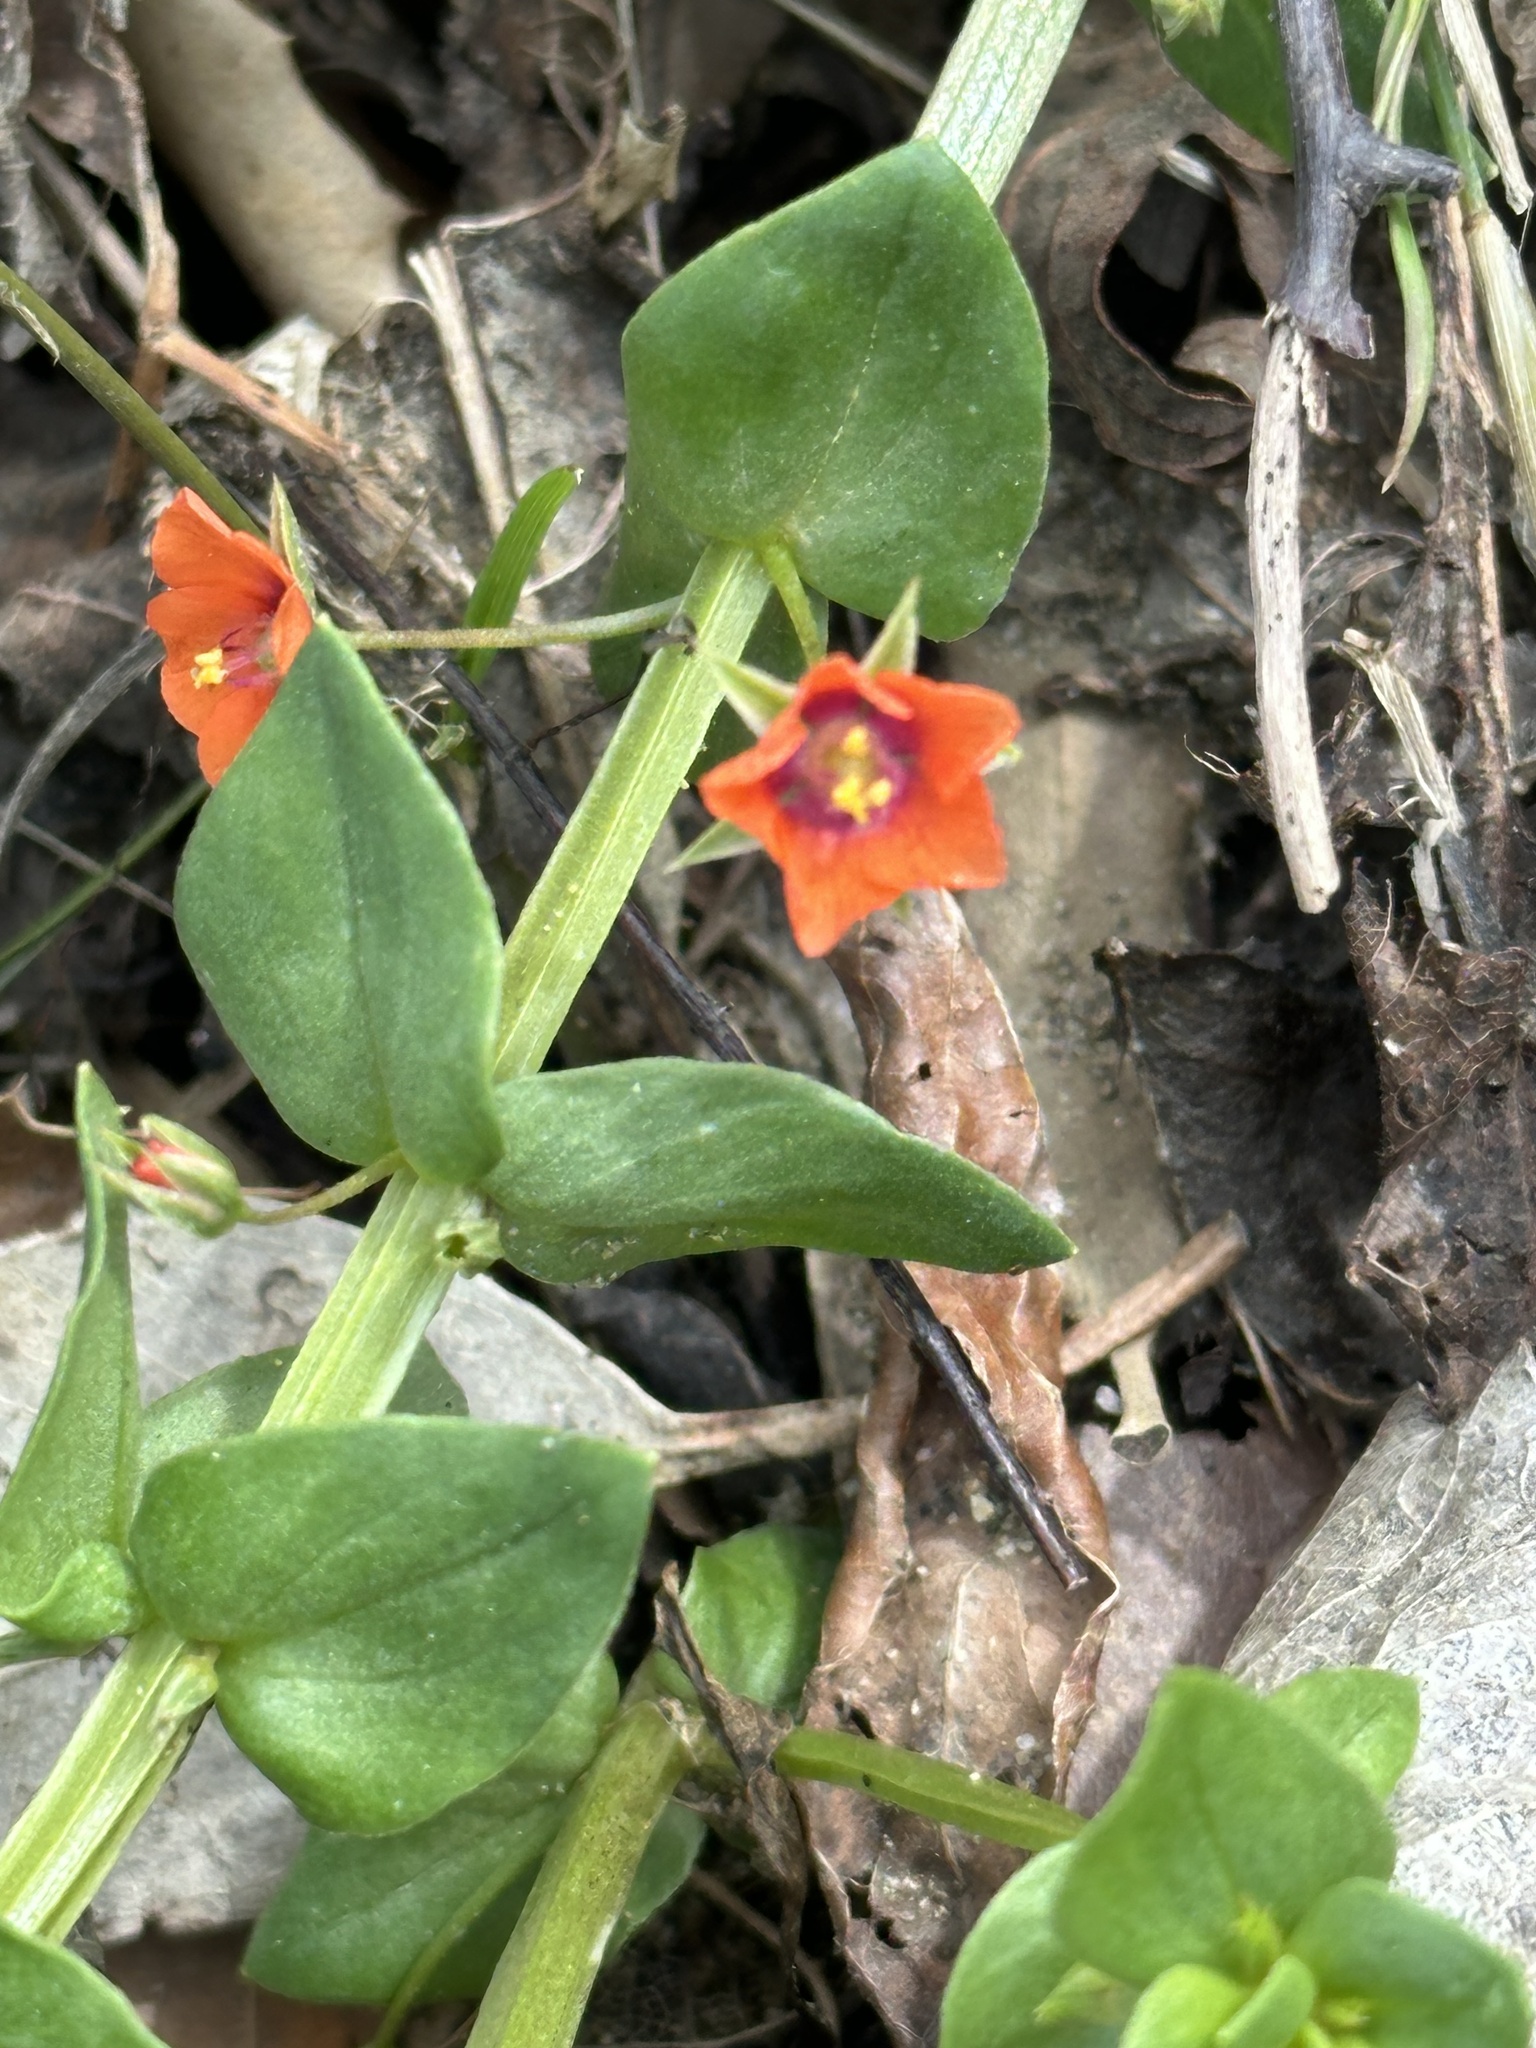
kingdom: Plantae
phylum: Tracheophyta
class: Magnoliopsida
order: Ericales
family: Primulaceae
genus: Lysimachia
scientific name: Lysimachia arvensis
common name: Scarlet pimpernel
